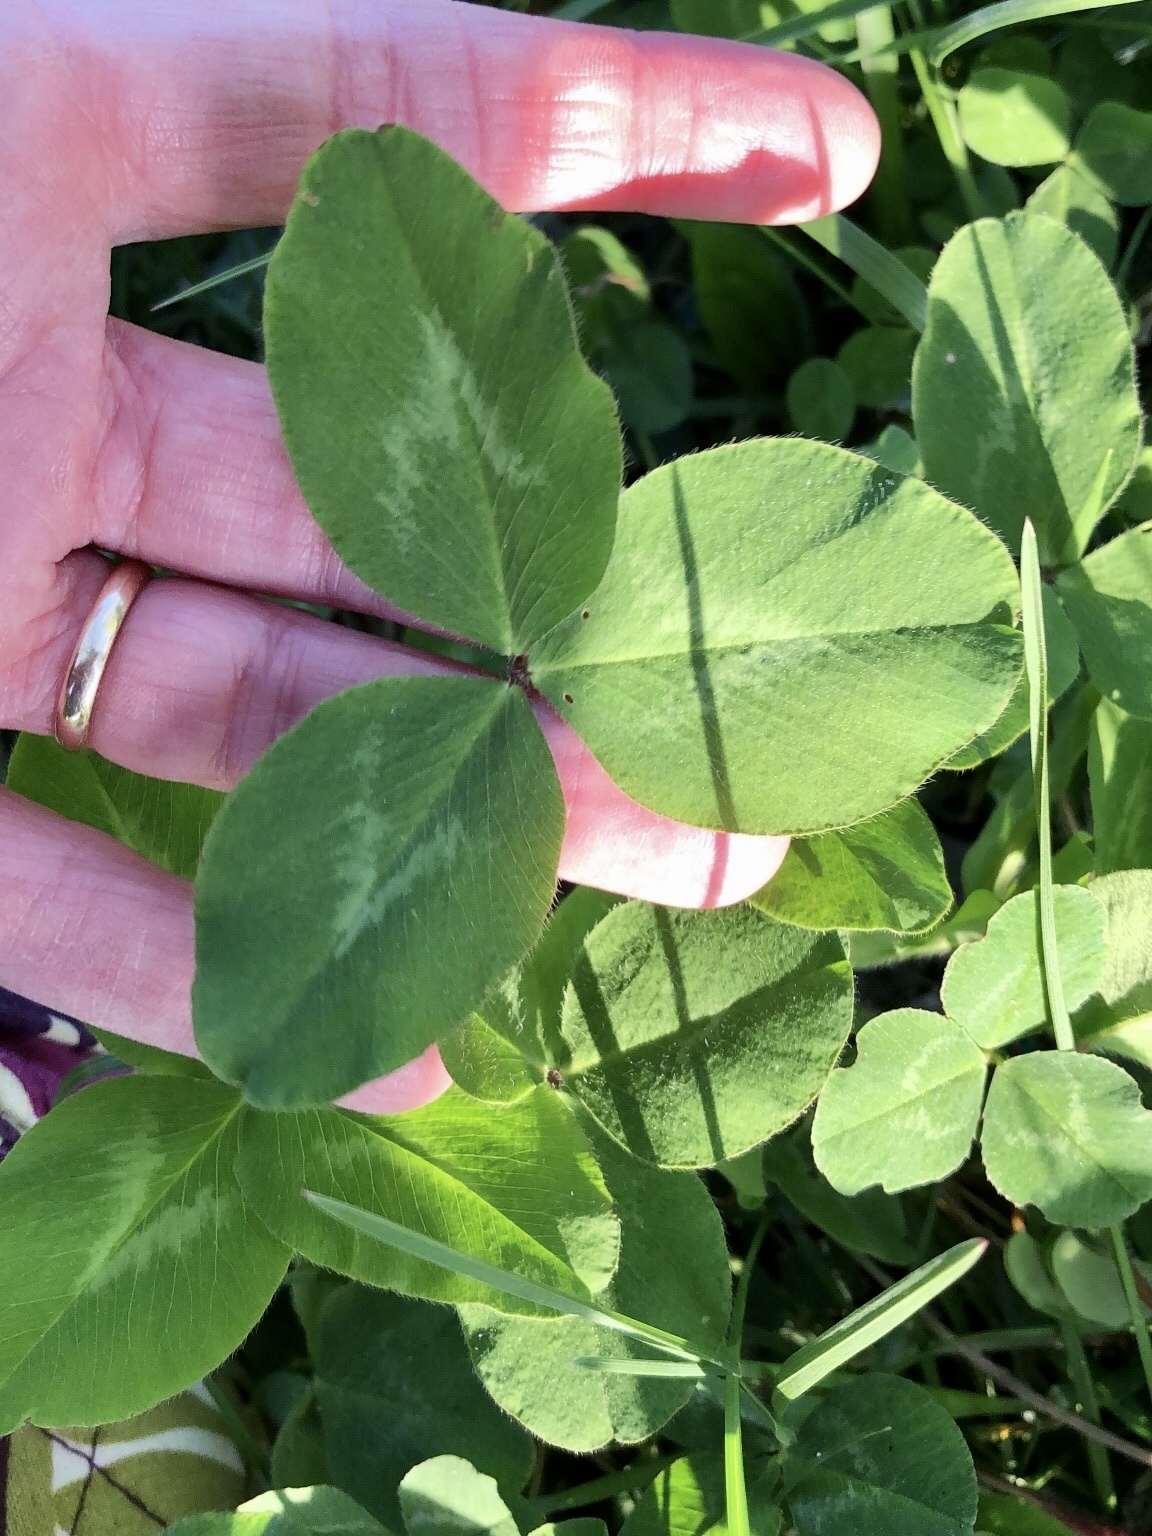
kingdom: Plantae
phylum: Tracheophyta
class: Magnoliopsida
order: Fabales
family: Fabaceae
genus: Trifolium
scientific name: Trifolium repens
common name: White clover
